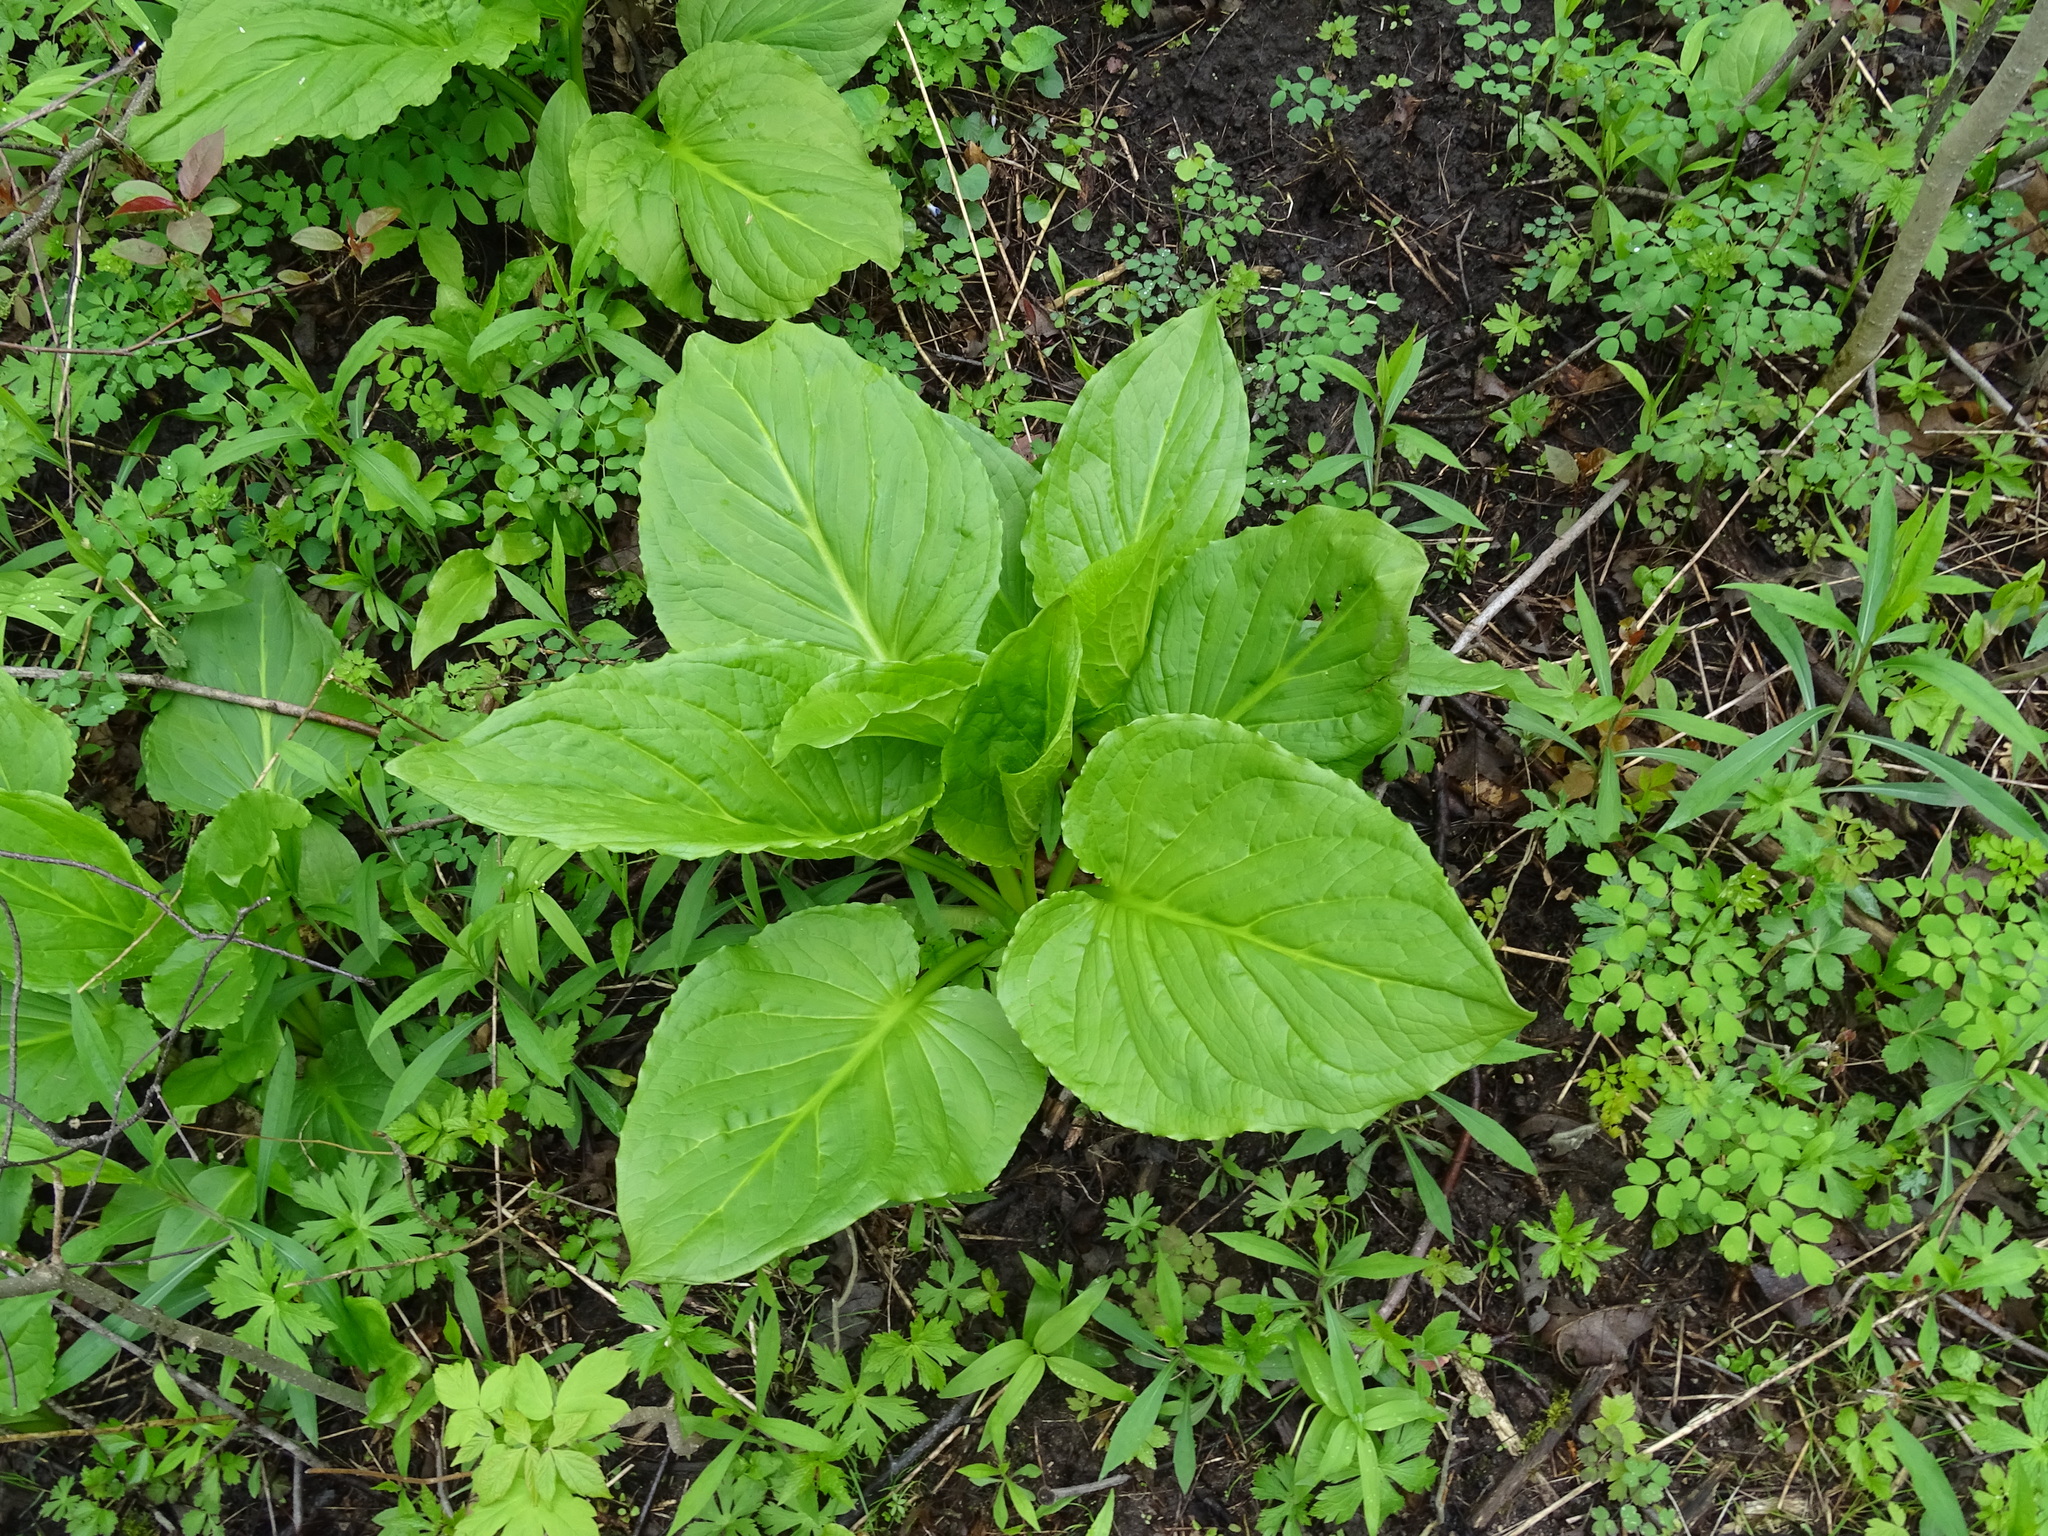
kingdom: Plantae
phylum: Tracheophyta
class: Liliopsida
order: Alismatales
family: Araceae
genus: Symplocarpus
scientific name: Symplocarpus foetidus
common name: Eastern skunk cabbage
